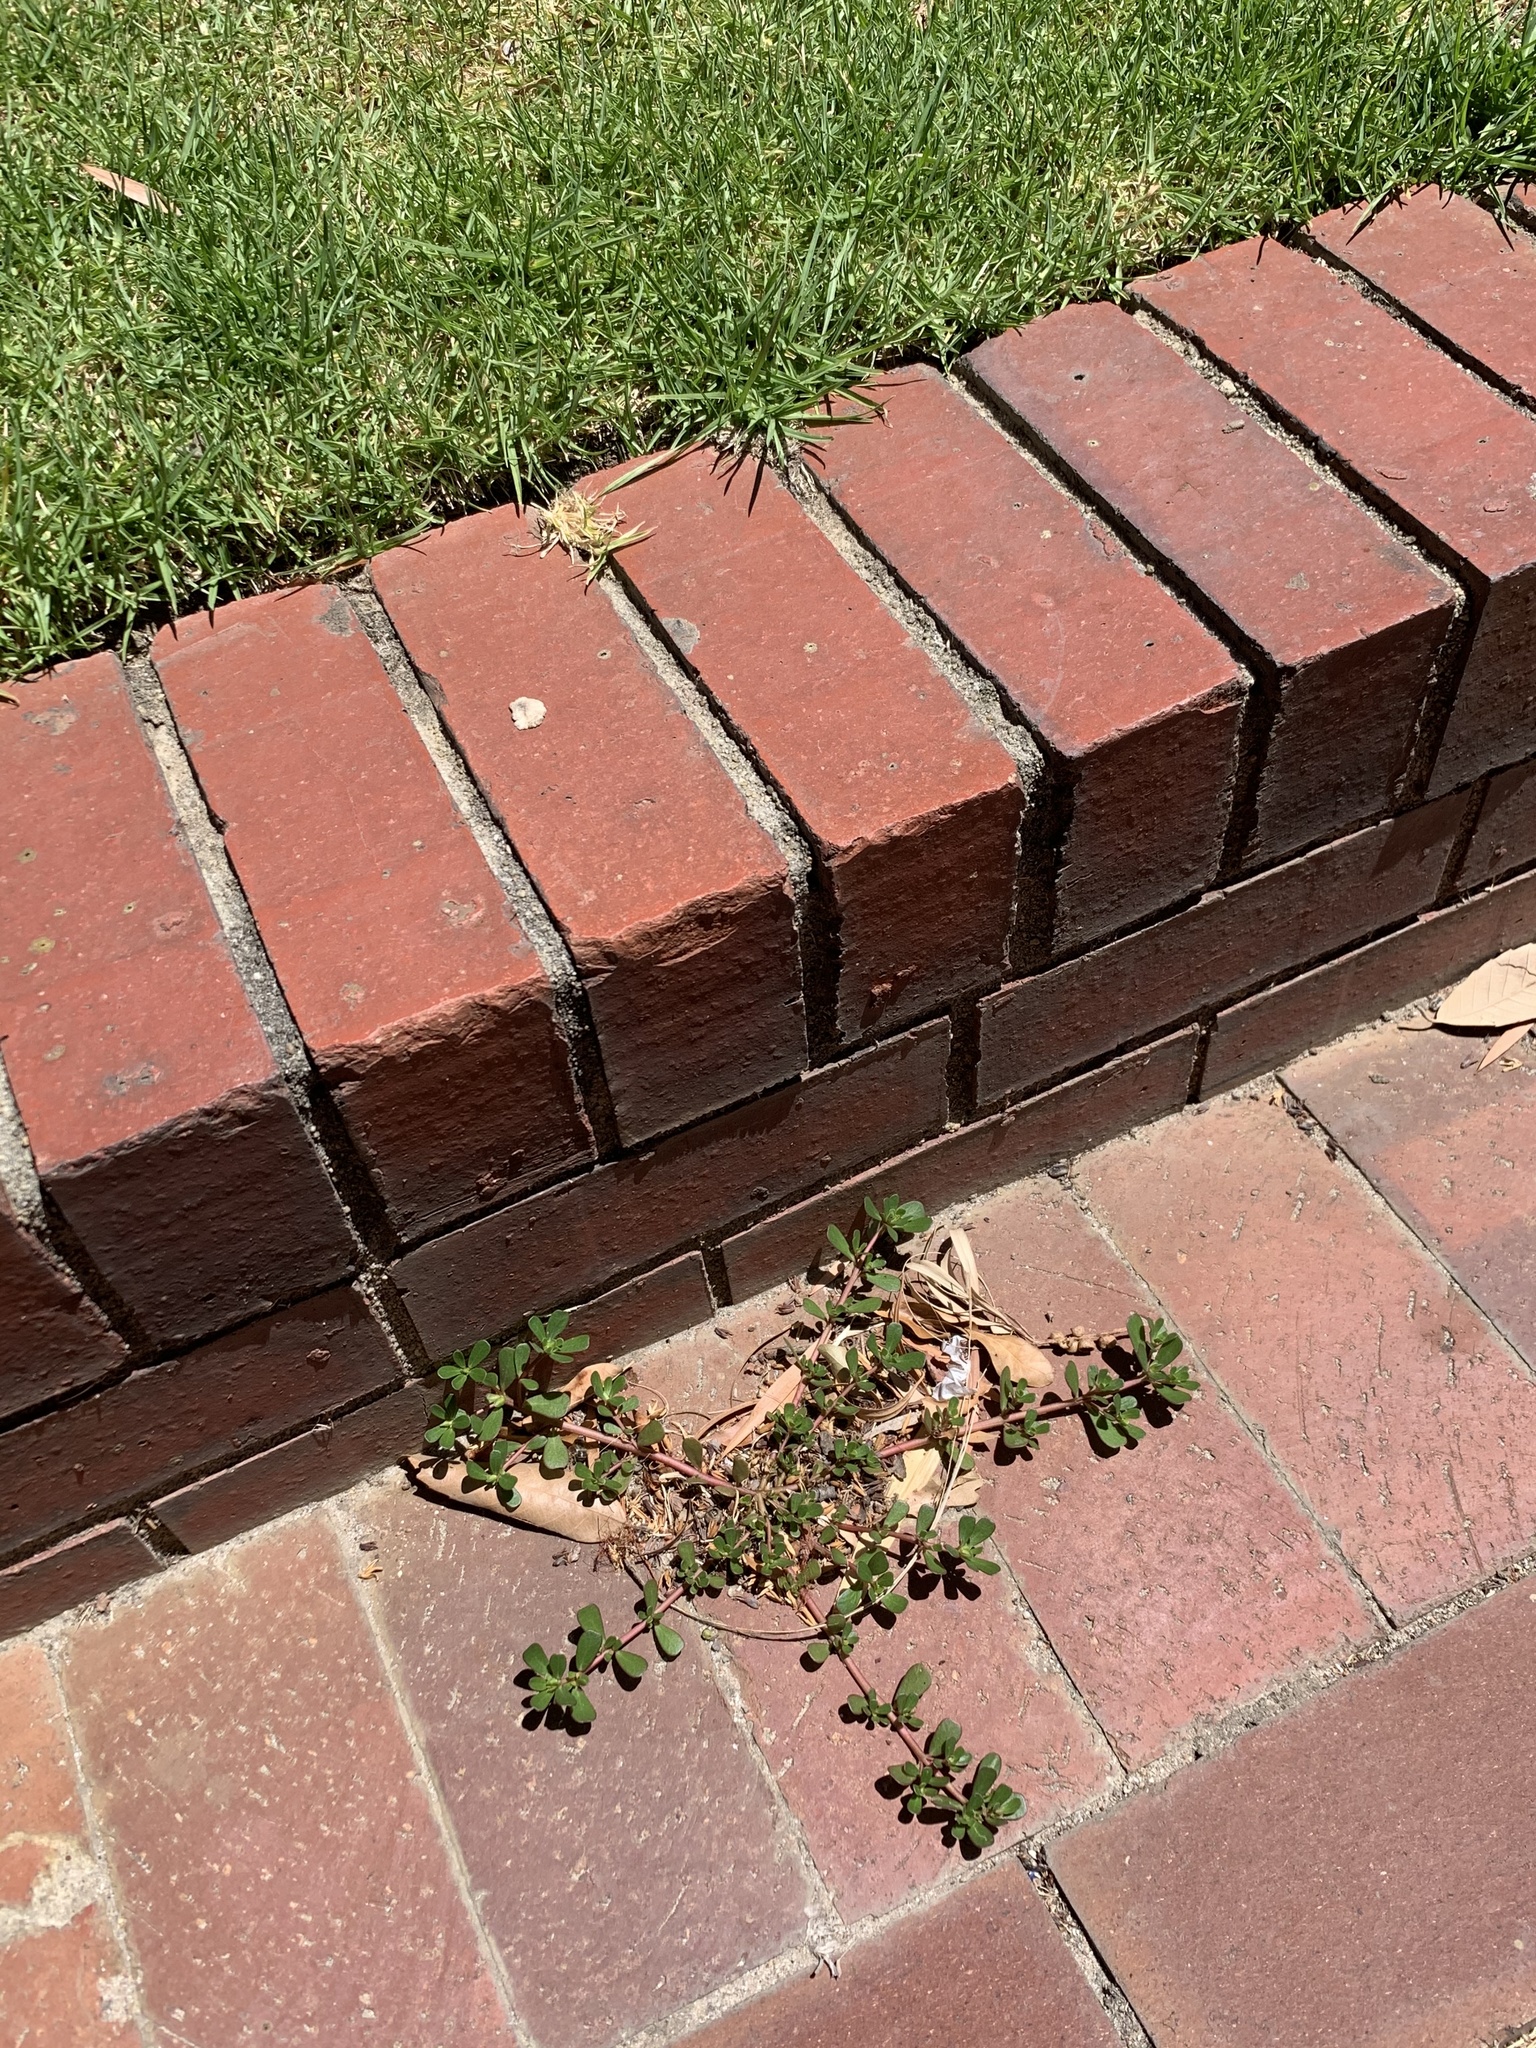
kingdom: Plantae
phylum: Tracheophyta
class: Magnoliopsida
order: Caryophyllales
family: Portulacaceae
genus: Portulaca
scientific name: Portulaca oleracea
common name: Common purslane
